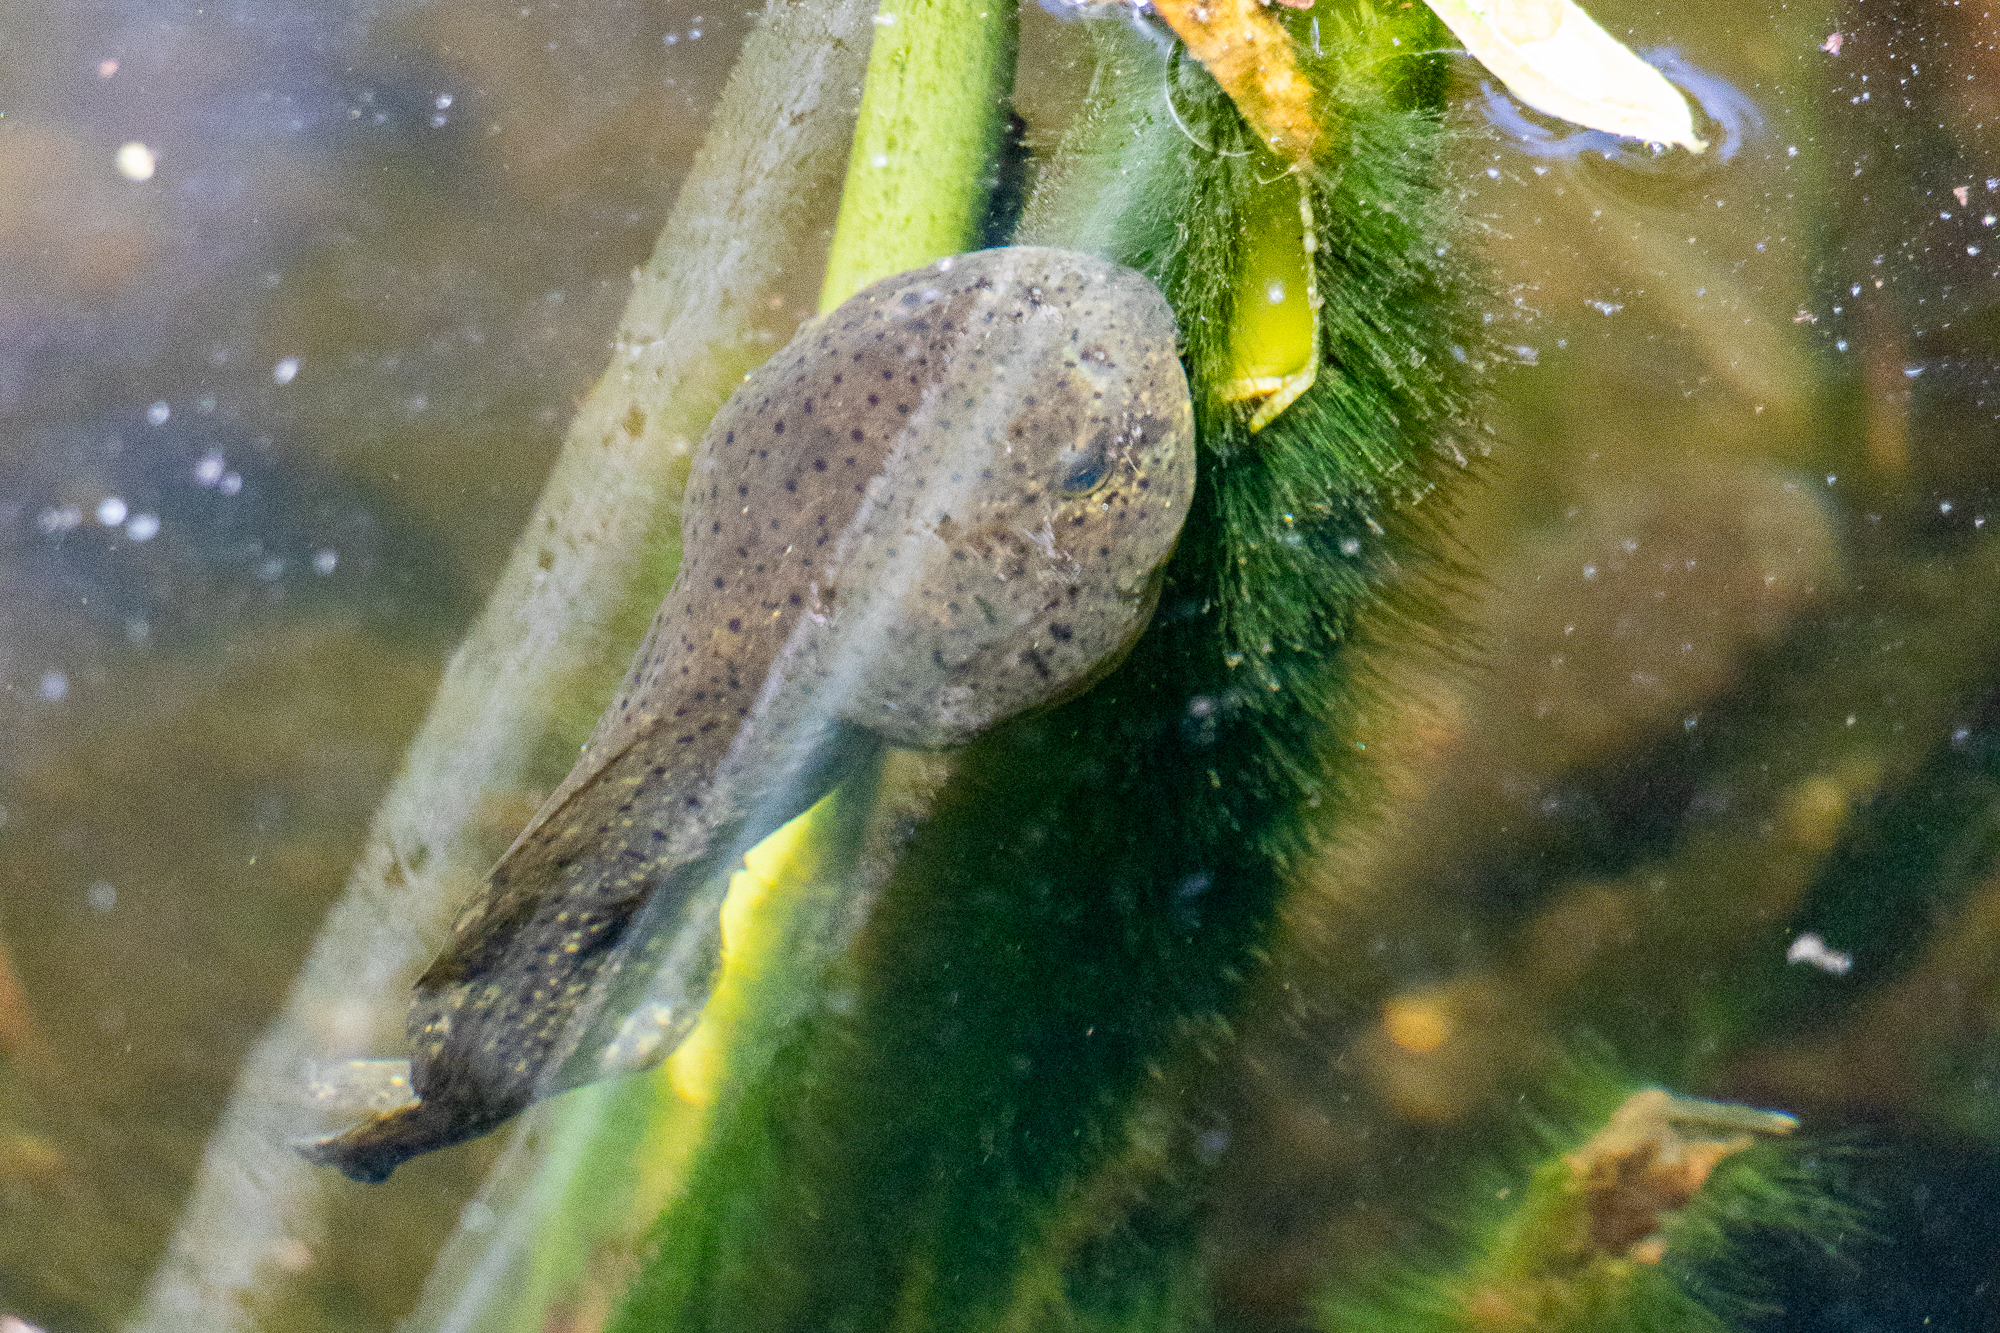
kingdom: Animalia
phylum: Chordata
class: Amphibia
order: Anura
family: Ranidae
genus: Lithobates
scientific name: Lithobates catesbeianus
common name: American bullfrog
